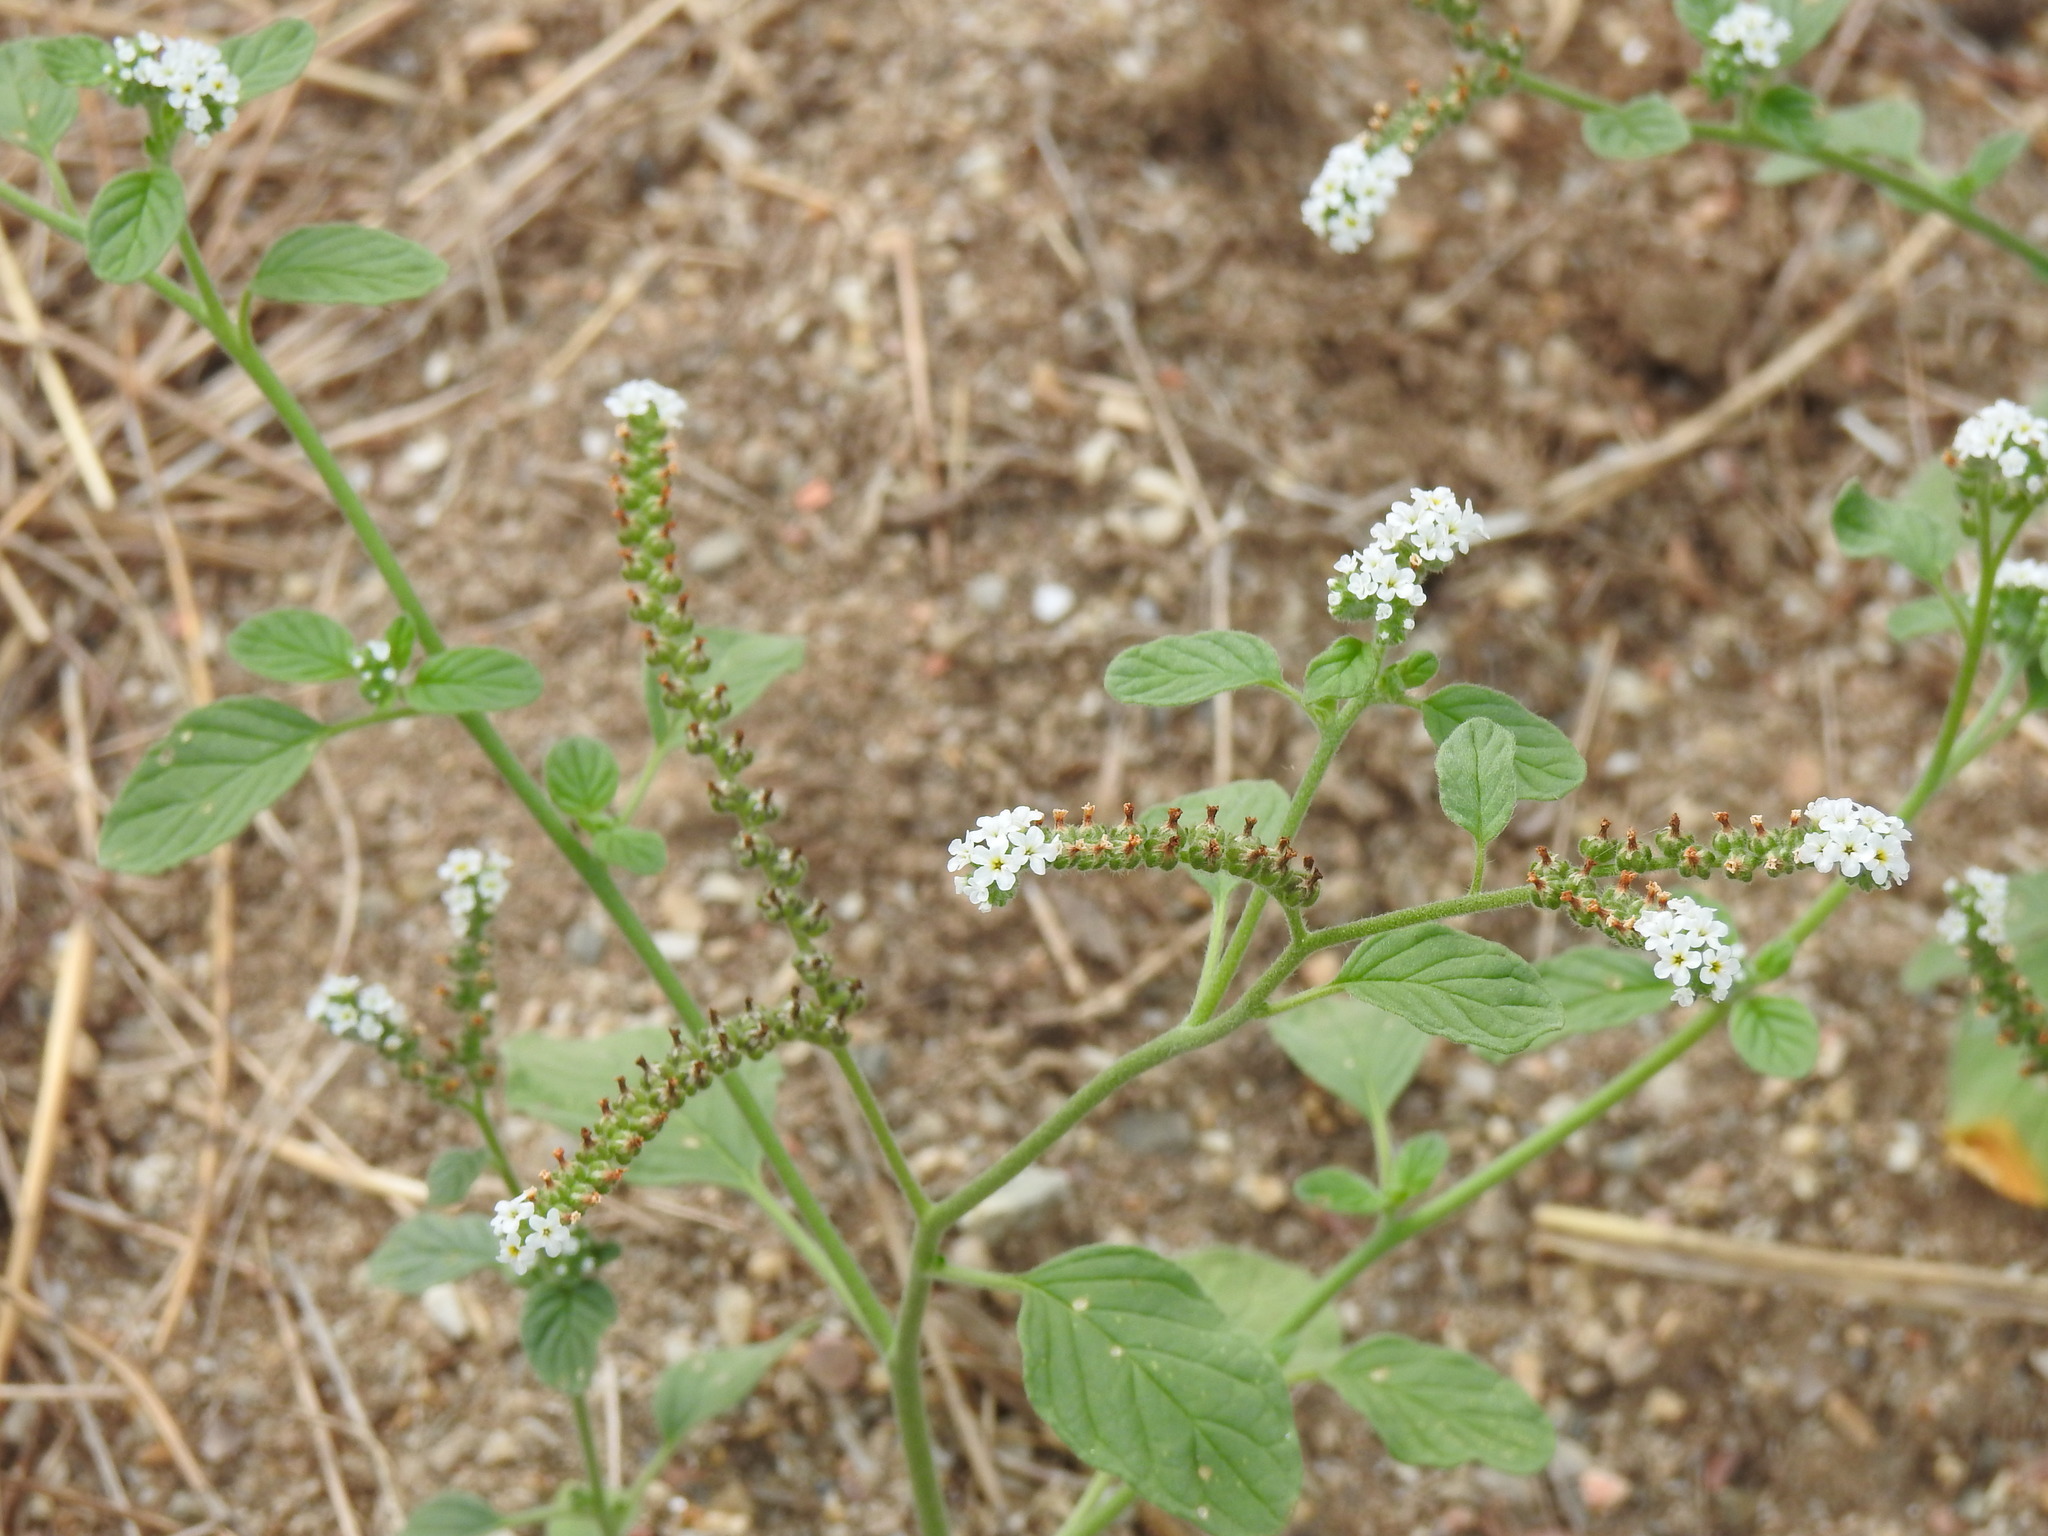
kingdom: Plantae
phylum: Tracheophyta
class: Magnoliopsida
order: Boraginales
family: Heliotropiaceae
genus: Heliotropium
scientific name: Heliotropium europaeum
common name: European heliotrope
